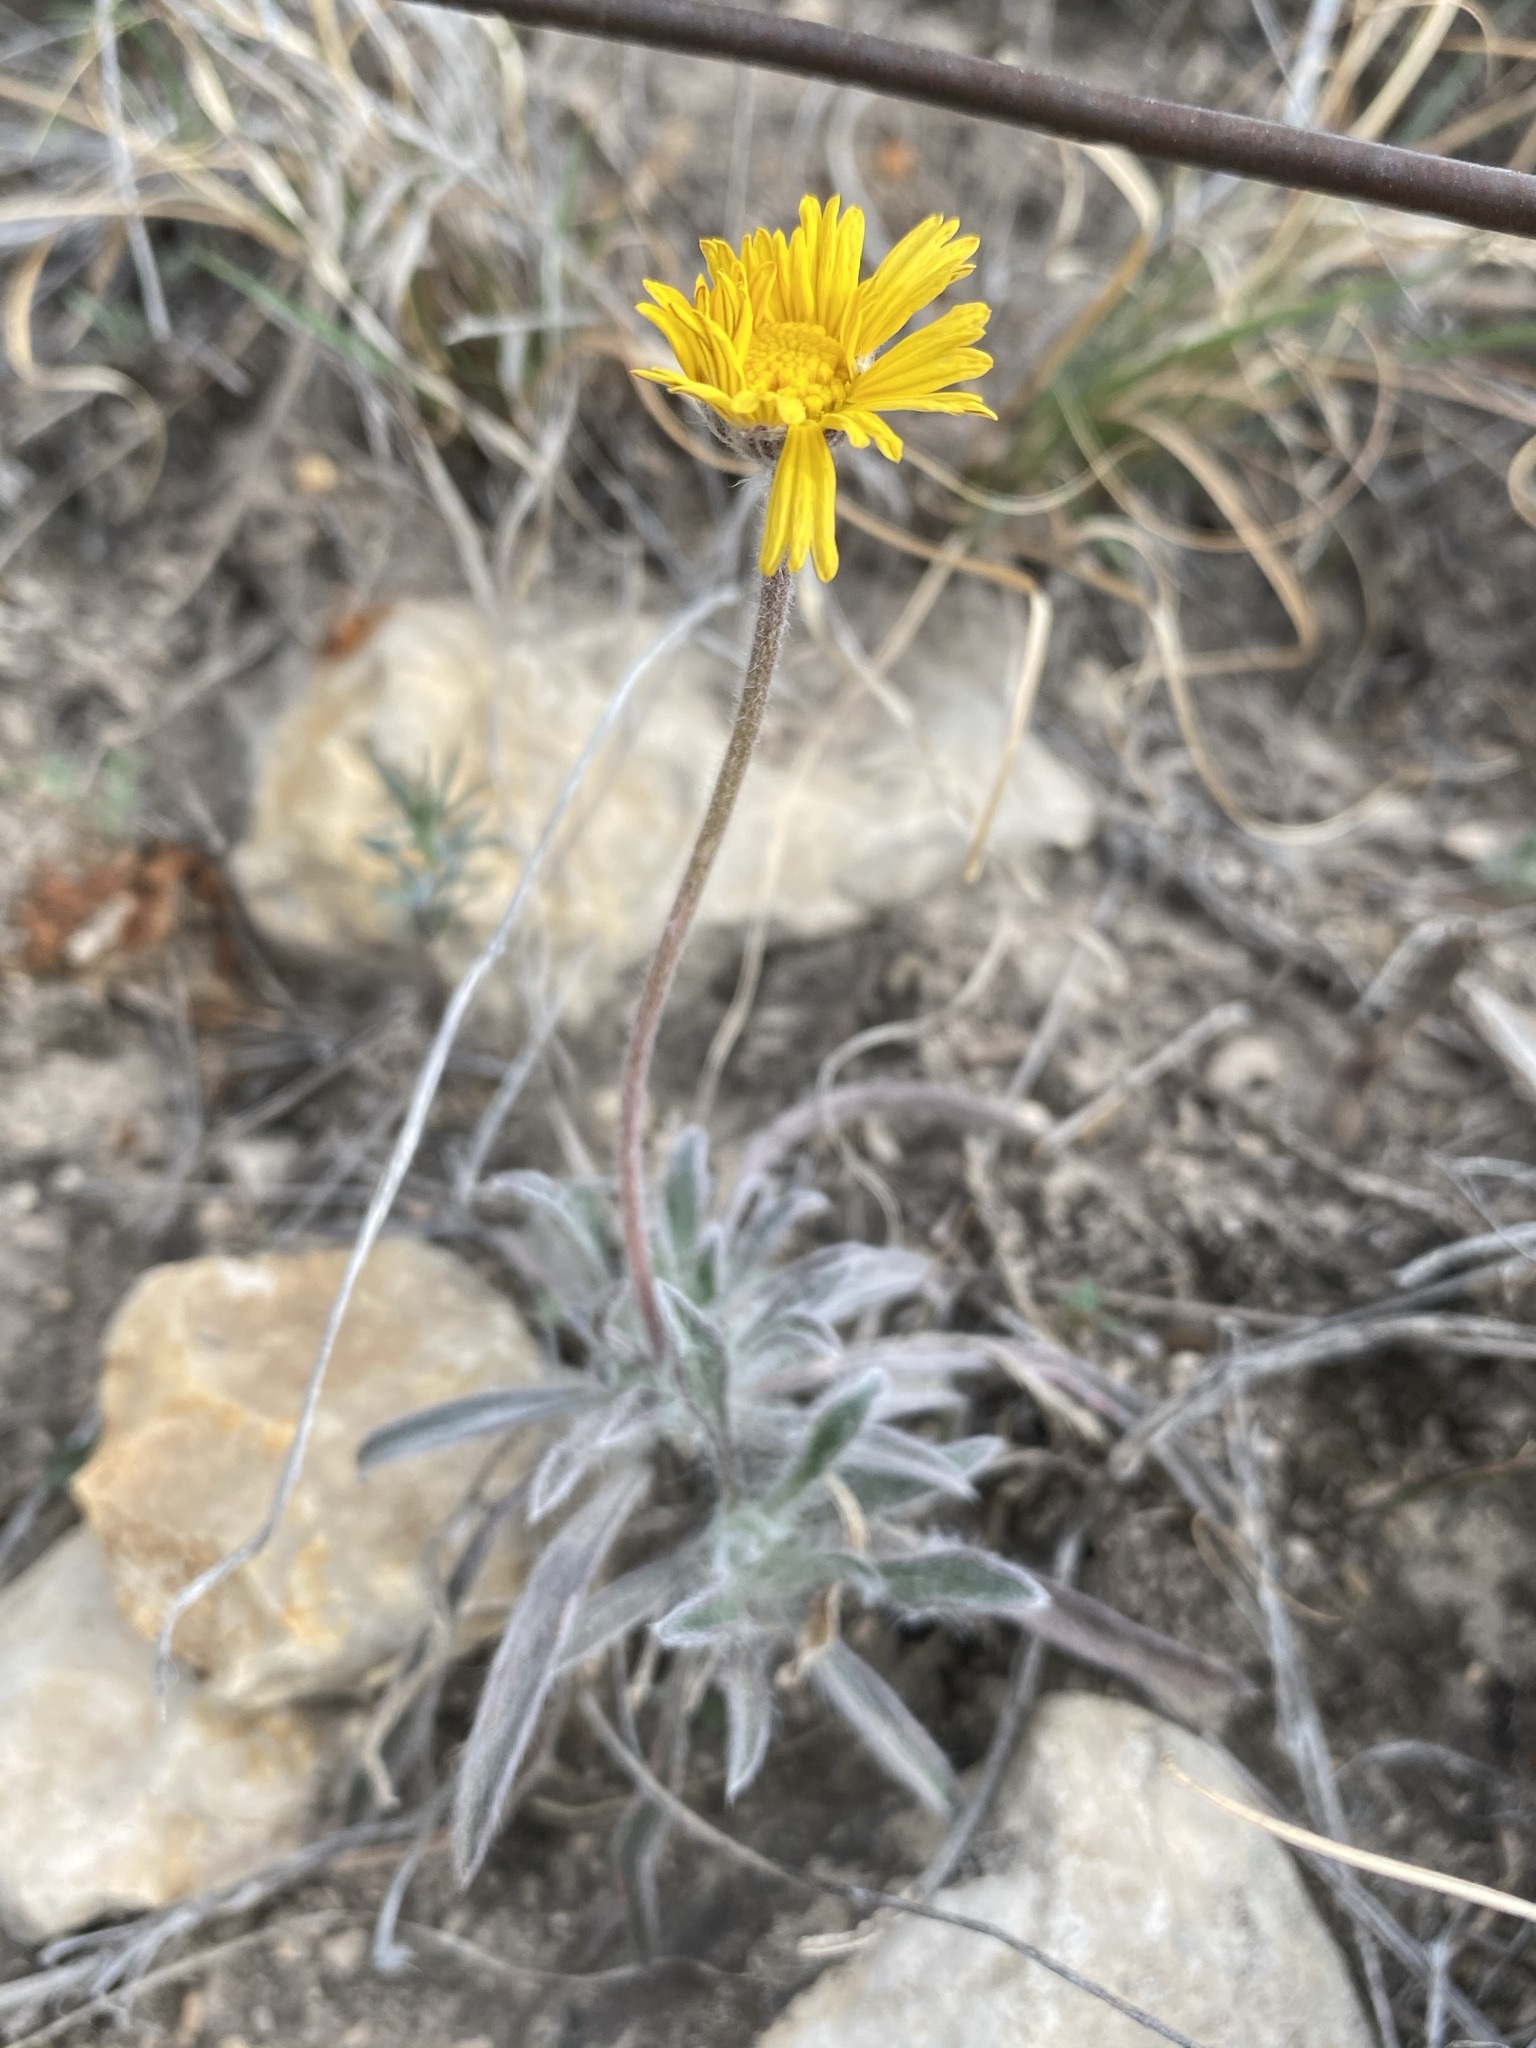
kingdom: Plantae
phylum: Tracheophyta
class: Magnoliopsida
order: Asterales
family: Asteraceae
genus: Tetraneuris
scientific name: Tetraneuris scaposa
